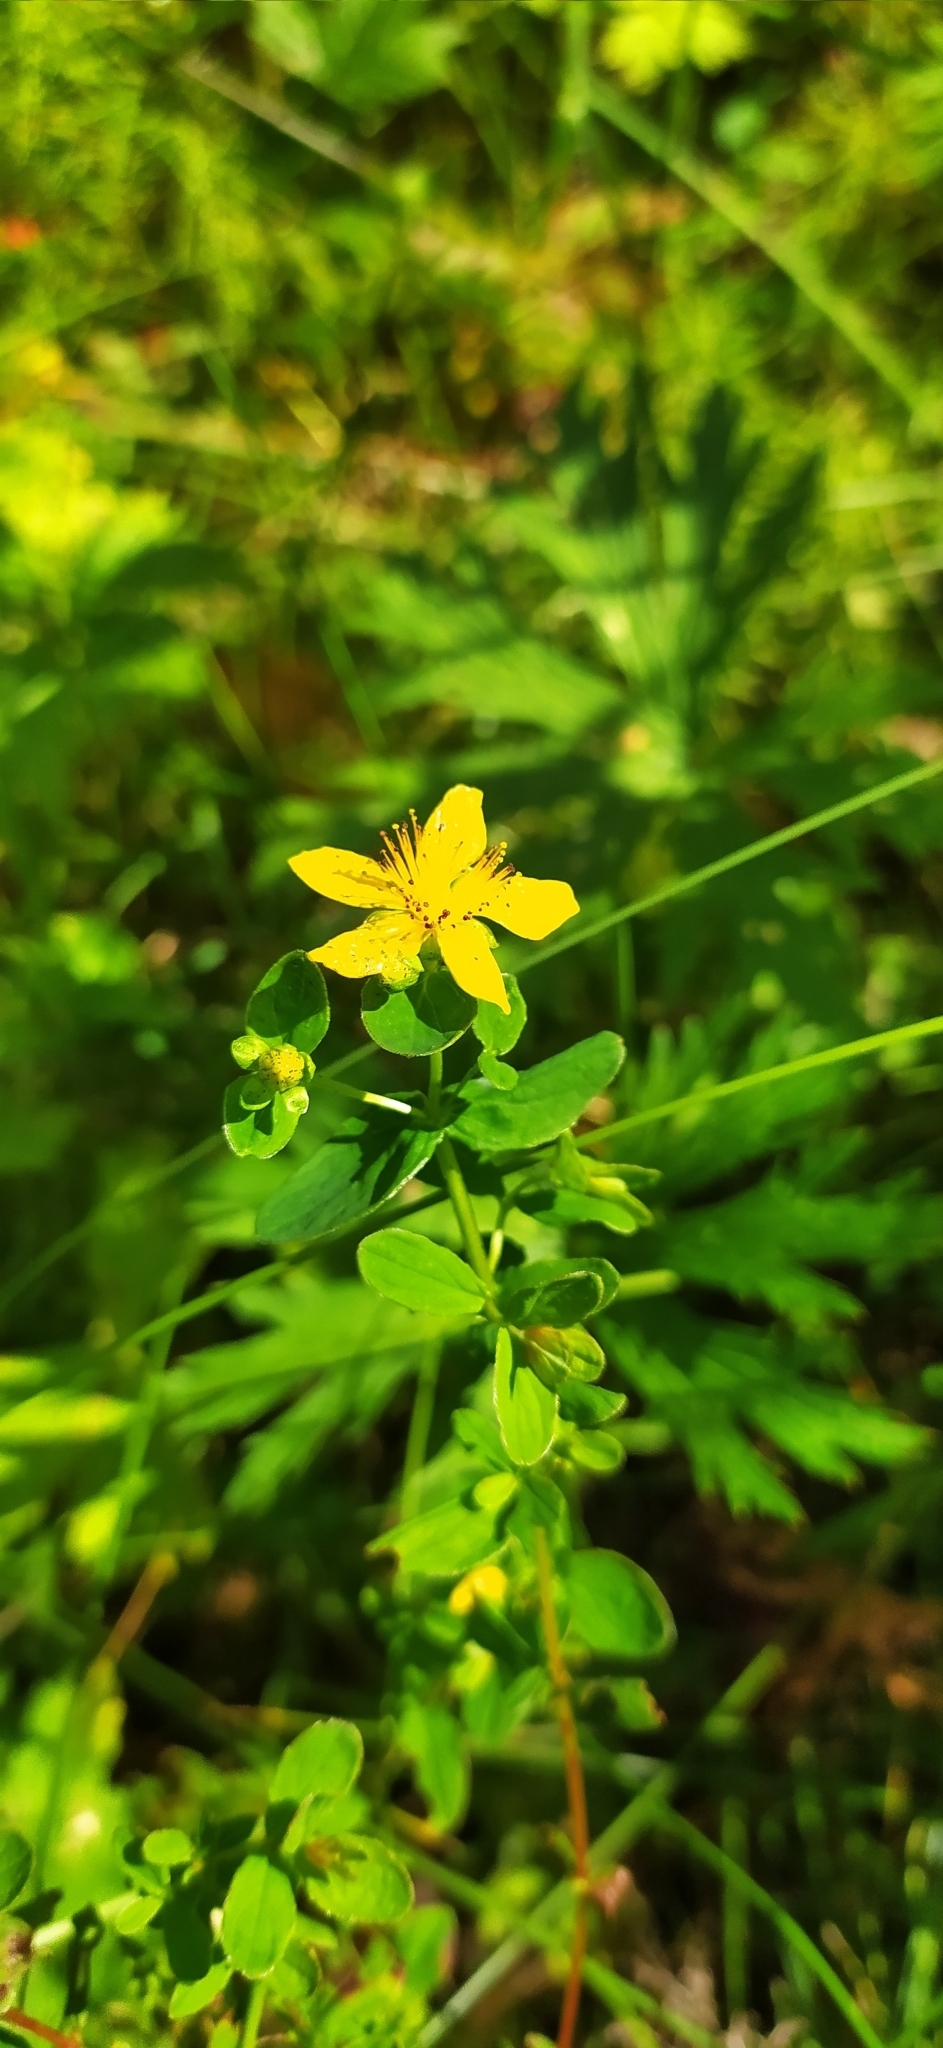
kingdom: Plantae
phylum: Tracheophyta
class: Magnoliopsida
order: Malpighiales
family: Hypericaceae
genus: Hypericum
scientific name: Hypericum maculatum
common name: Imperforate st. john's-wort
